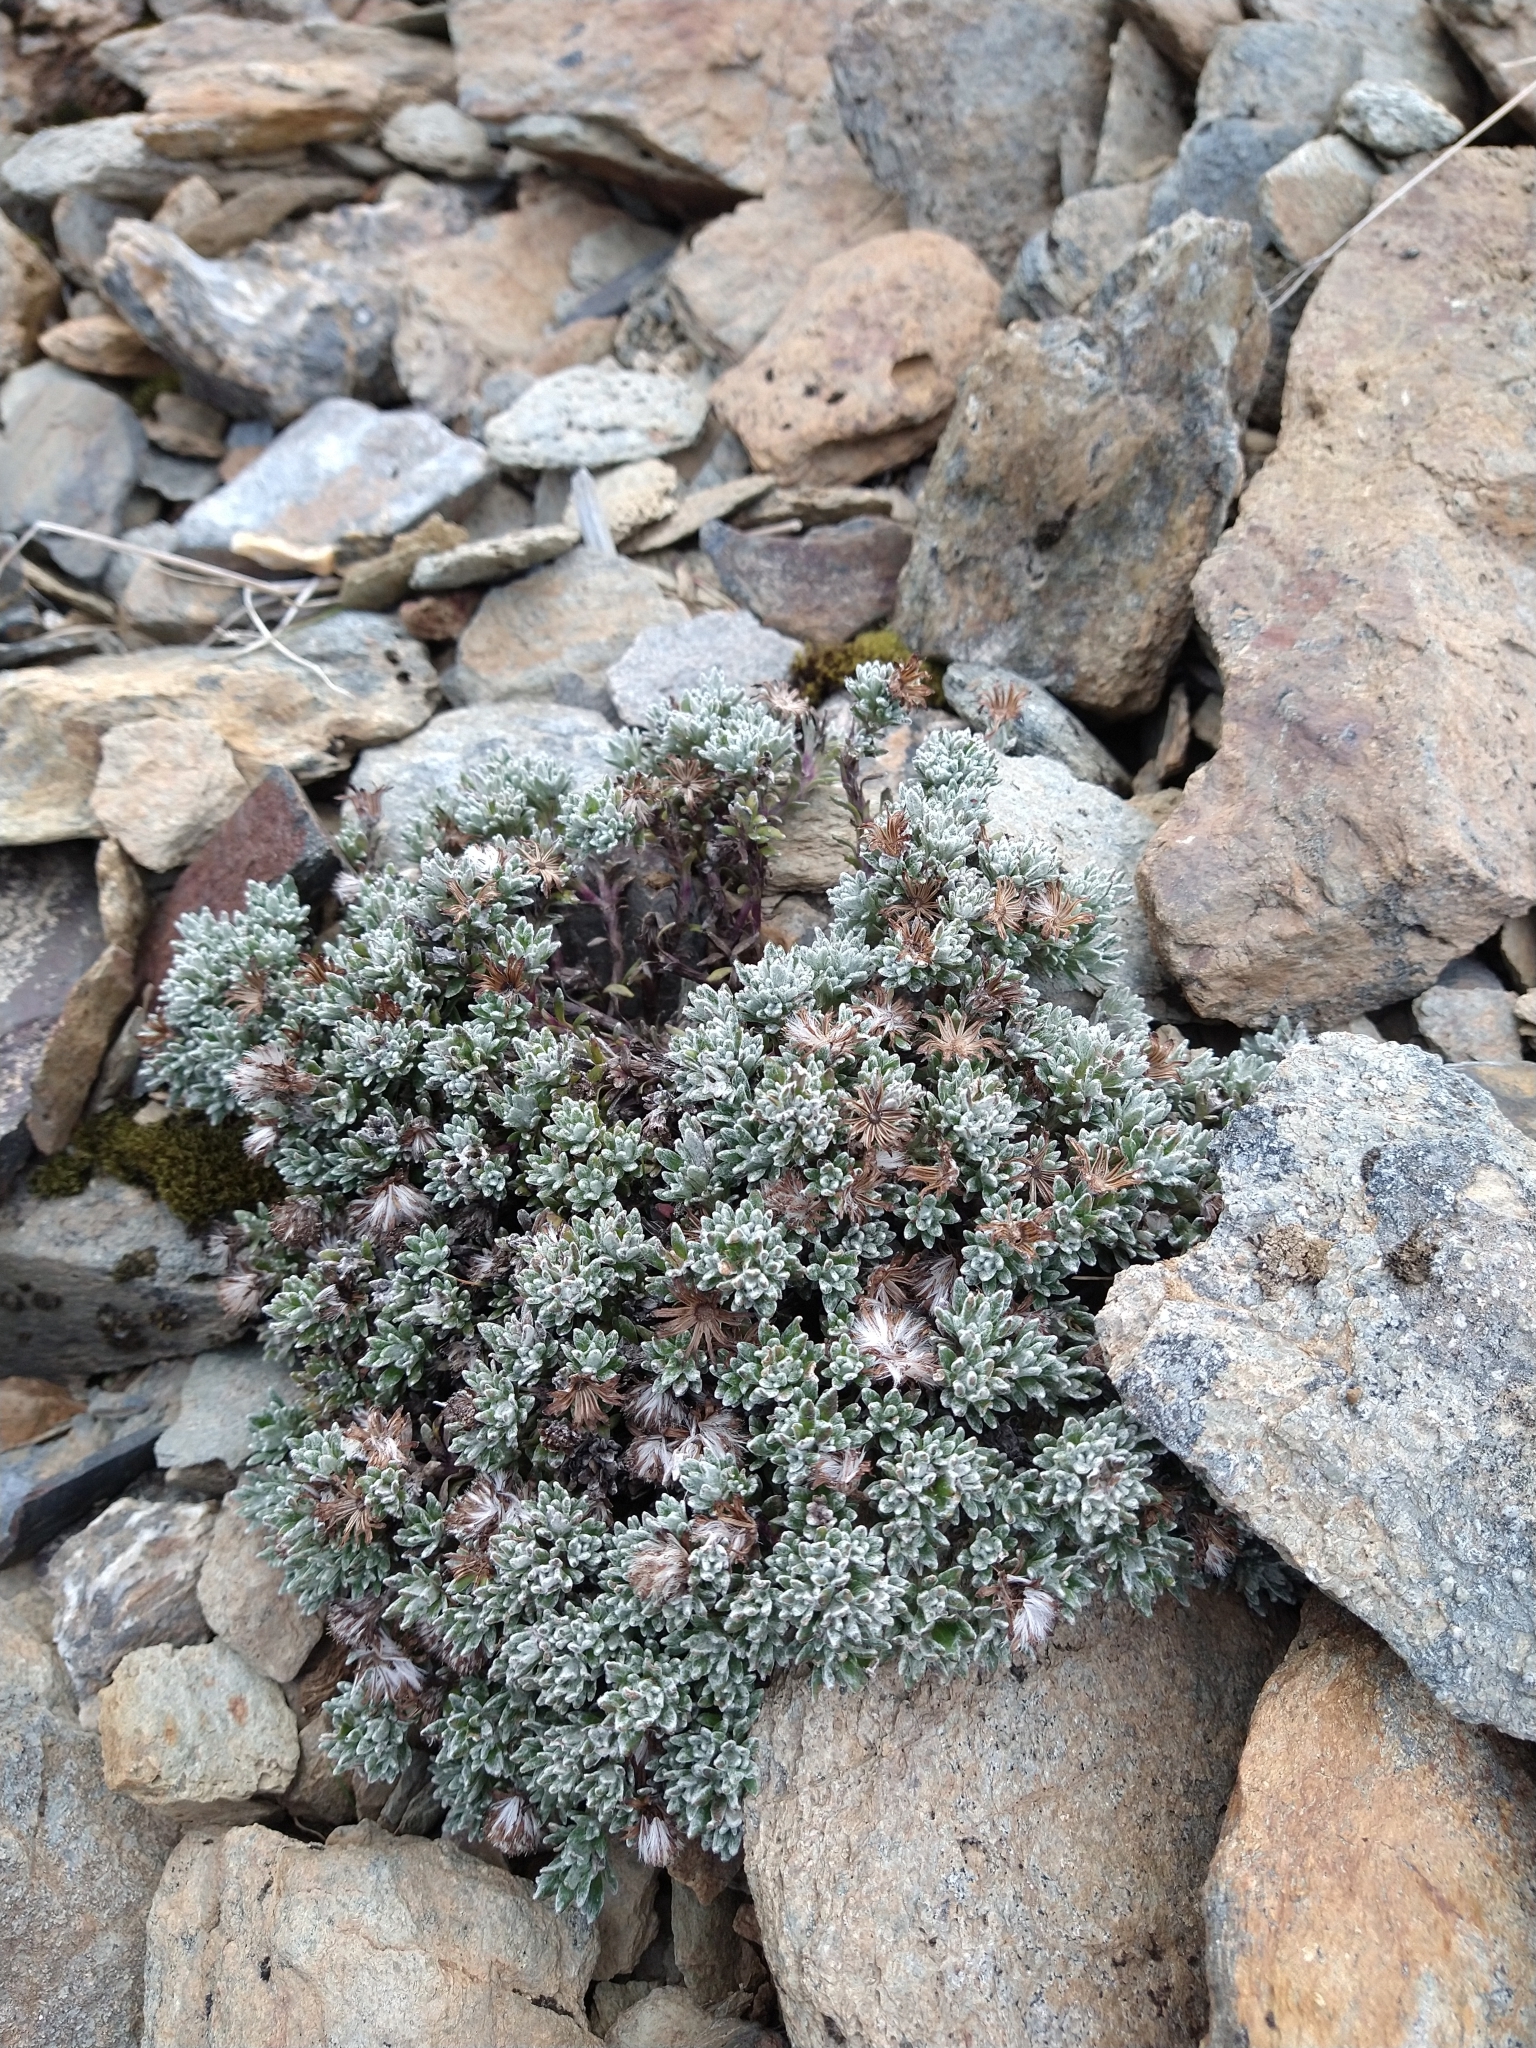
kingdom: Plantae
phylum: Tracheophyta
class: Magnoliopsida
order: Asterales
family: Asteraceae
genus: Senecio
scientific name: Senecio leucomallus
